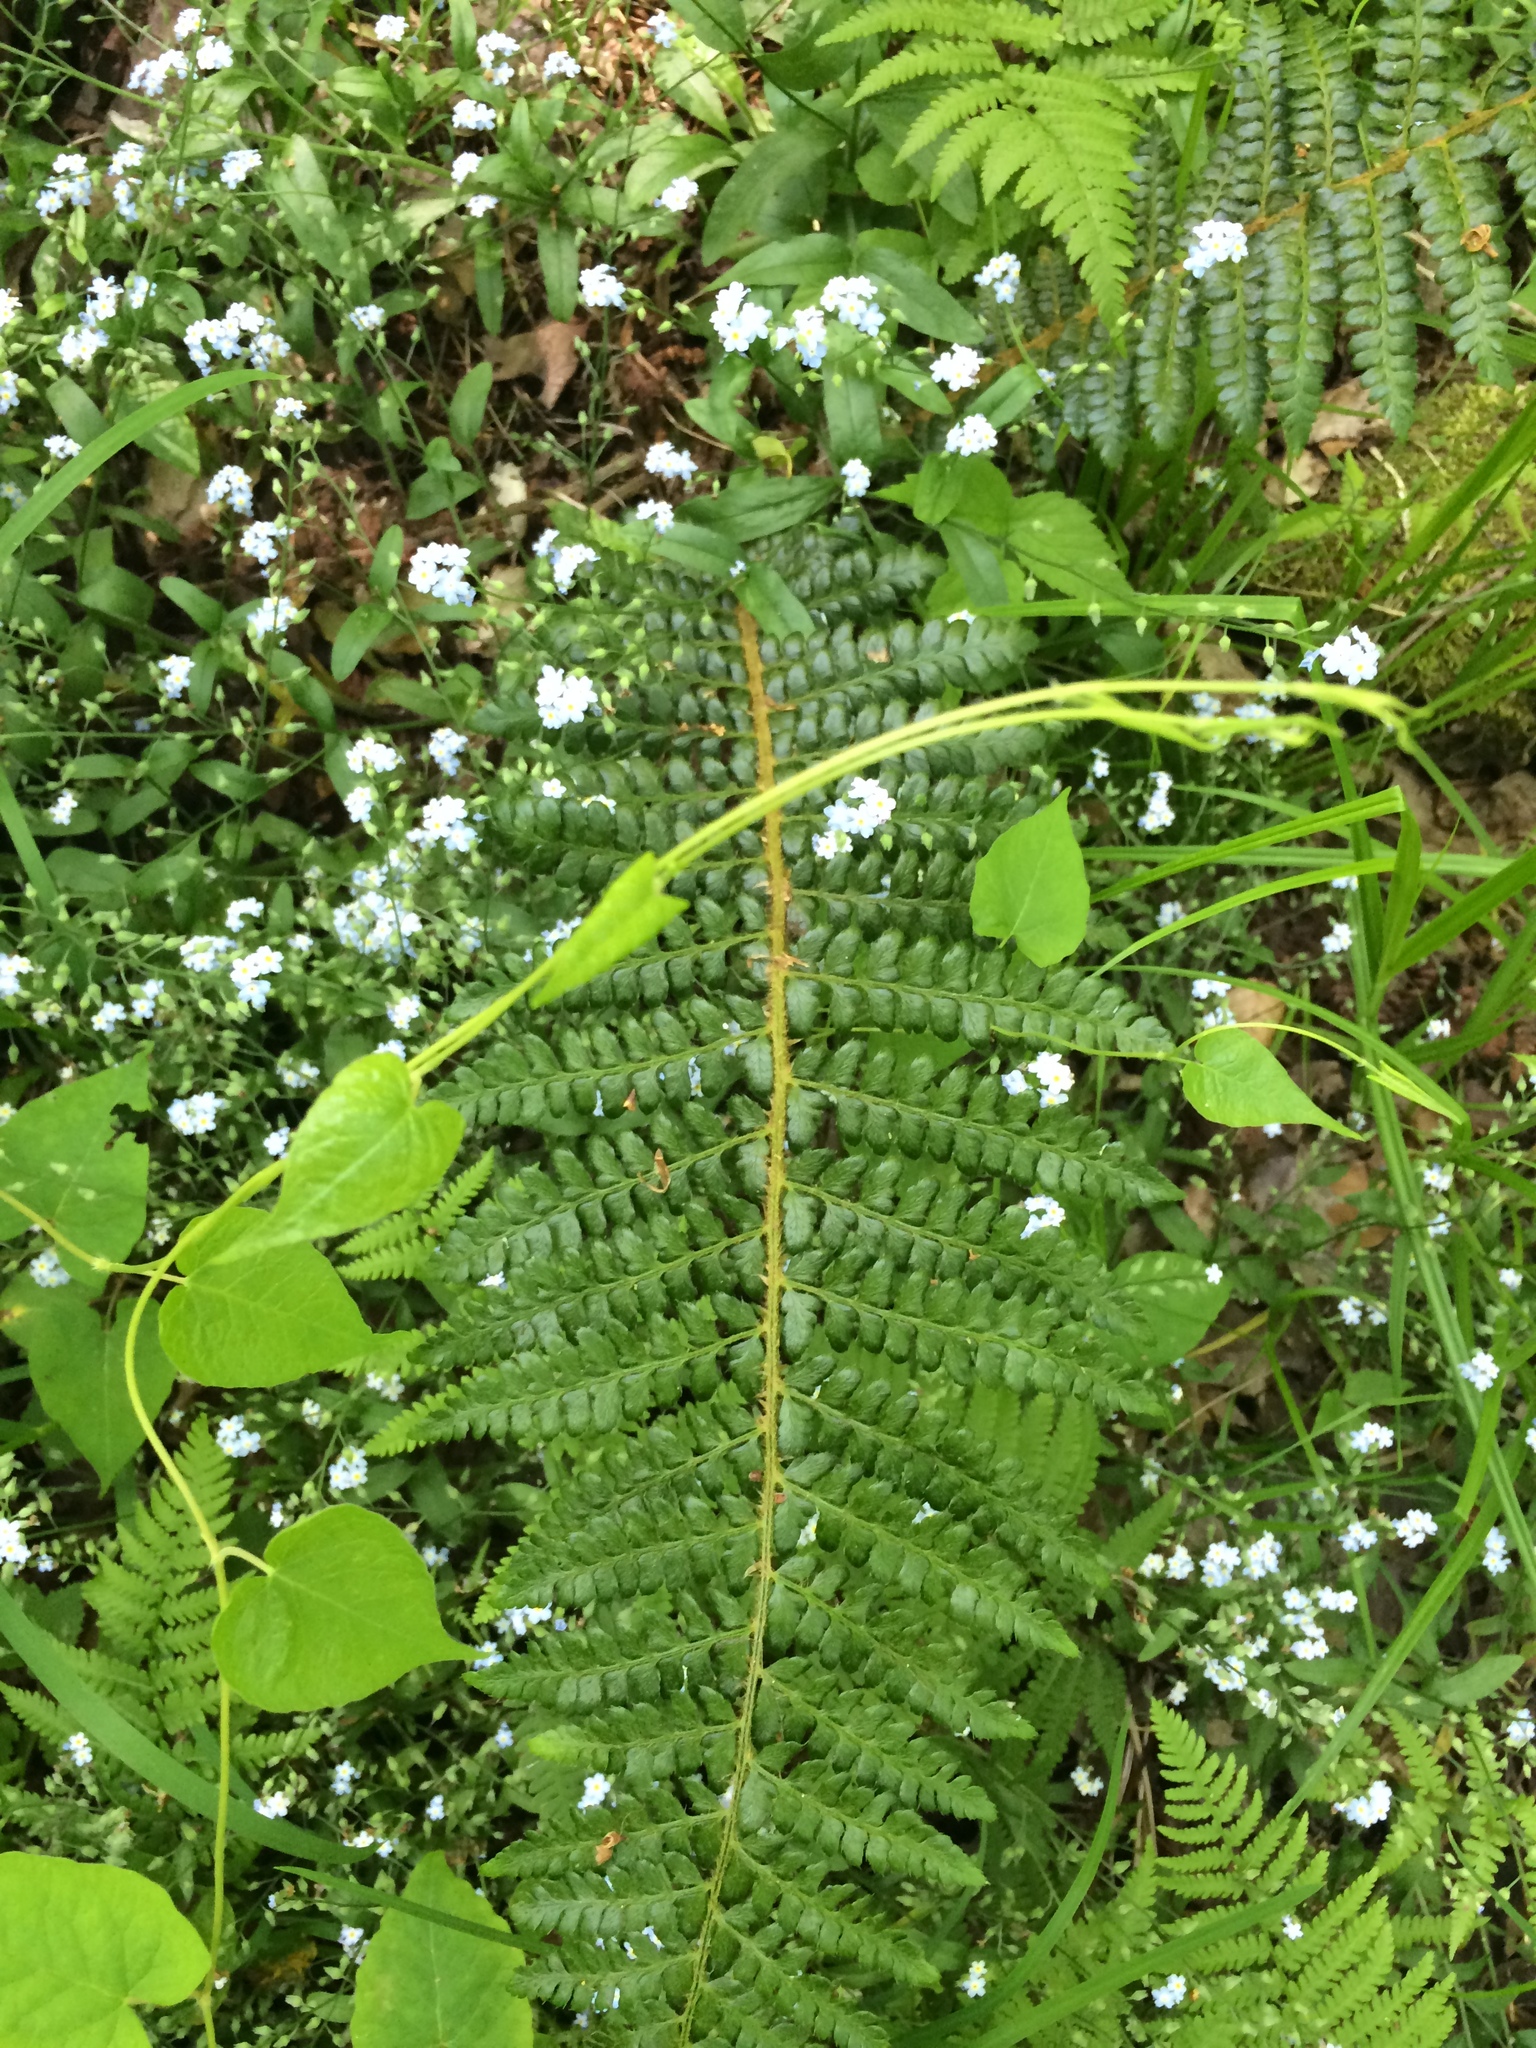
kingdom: Plantae
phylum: Tracheophyta
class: Polypodiopsida
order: Polypodiales
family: Dryopteridaceae
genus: Polystichum
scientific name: Polystichum braunii
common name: Braun's holly fern
